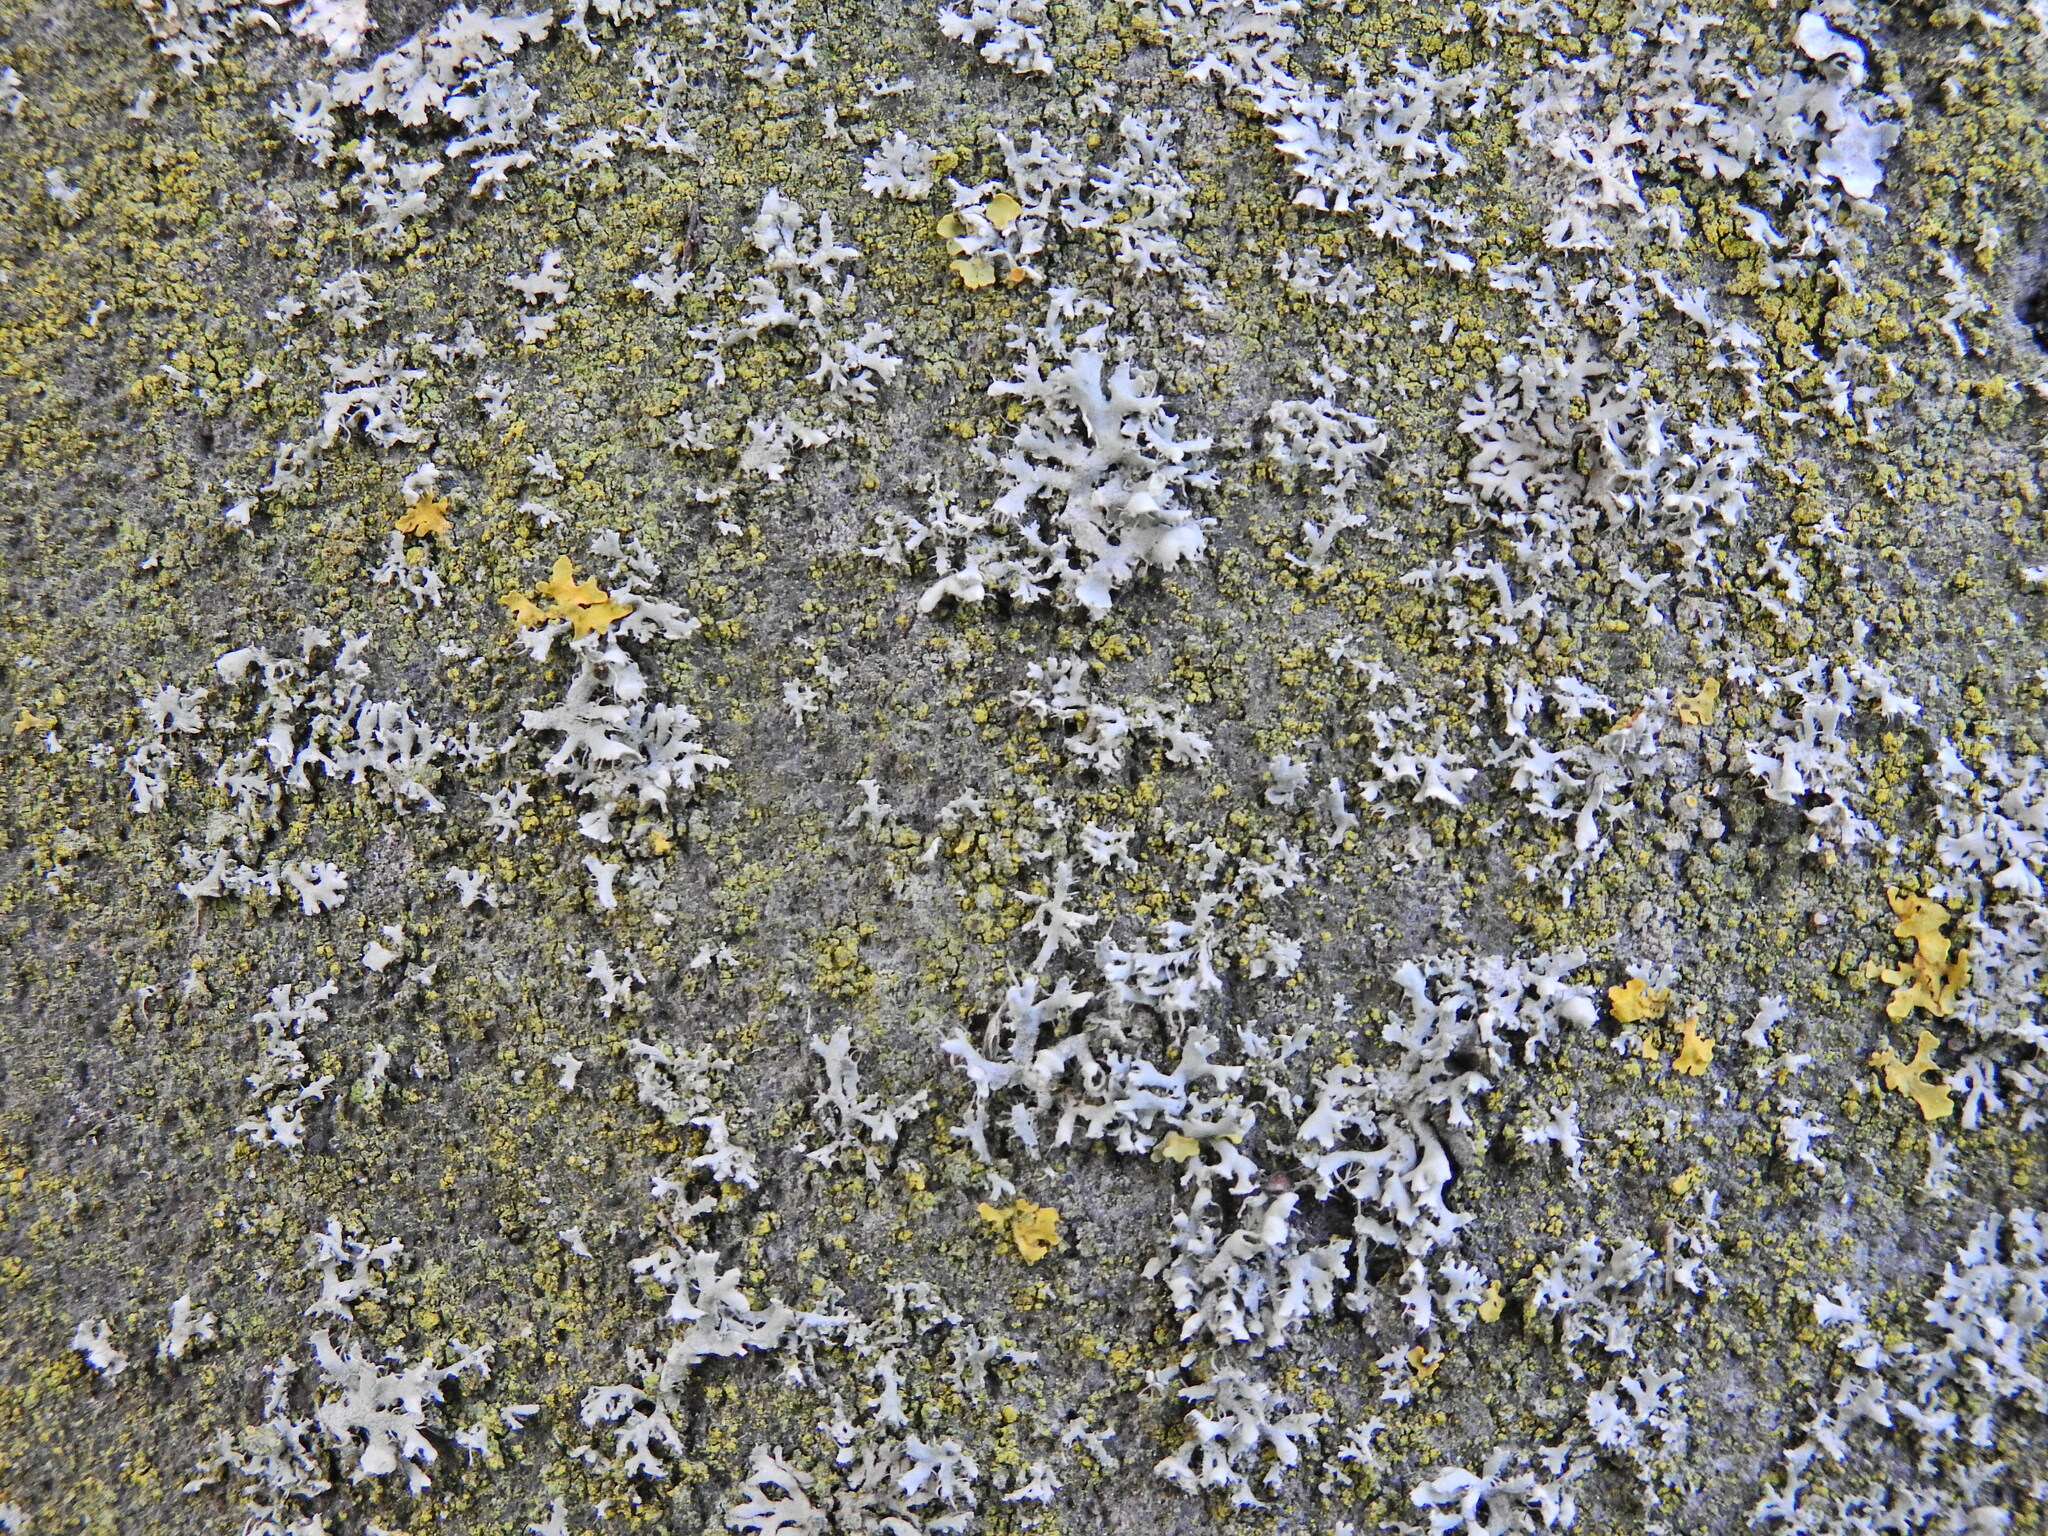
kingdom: Fungi
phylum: Ascomycota
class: Lecanoromycetes
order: Caliciales
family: Physciaceae
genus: Physcia
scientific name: Physcia adscendens
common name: Hooded rosette lichen
